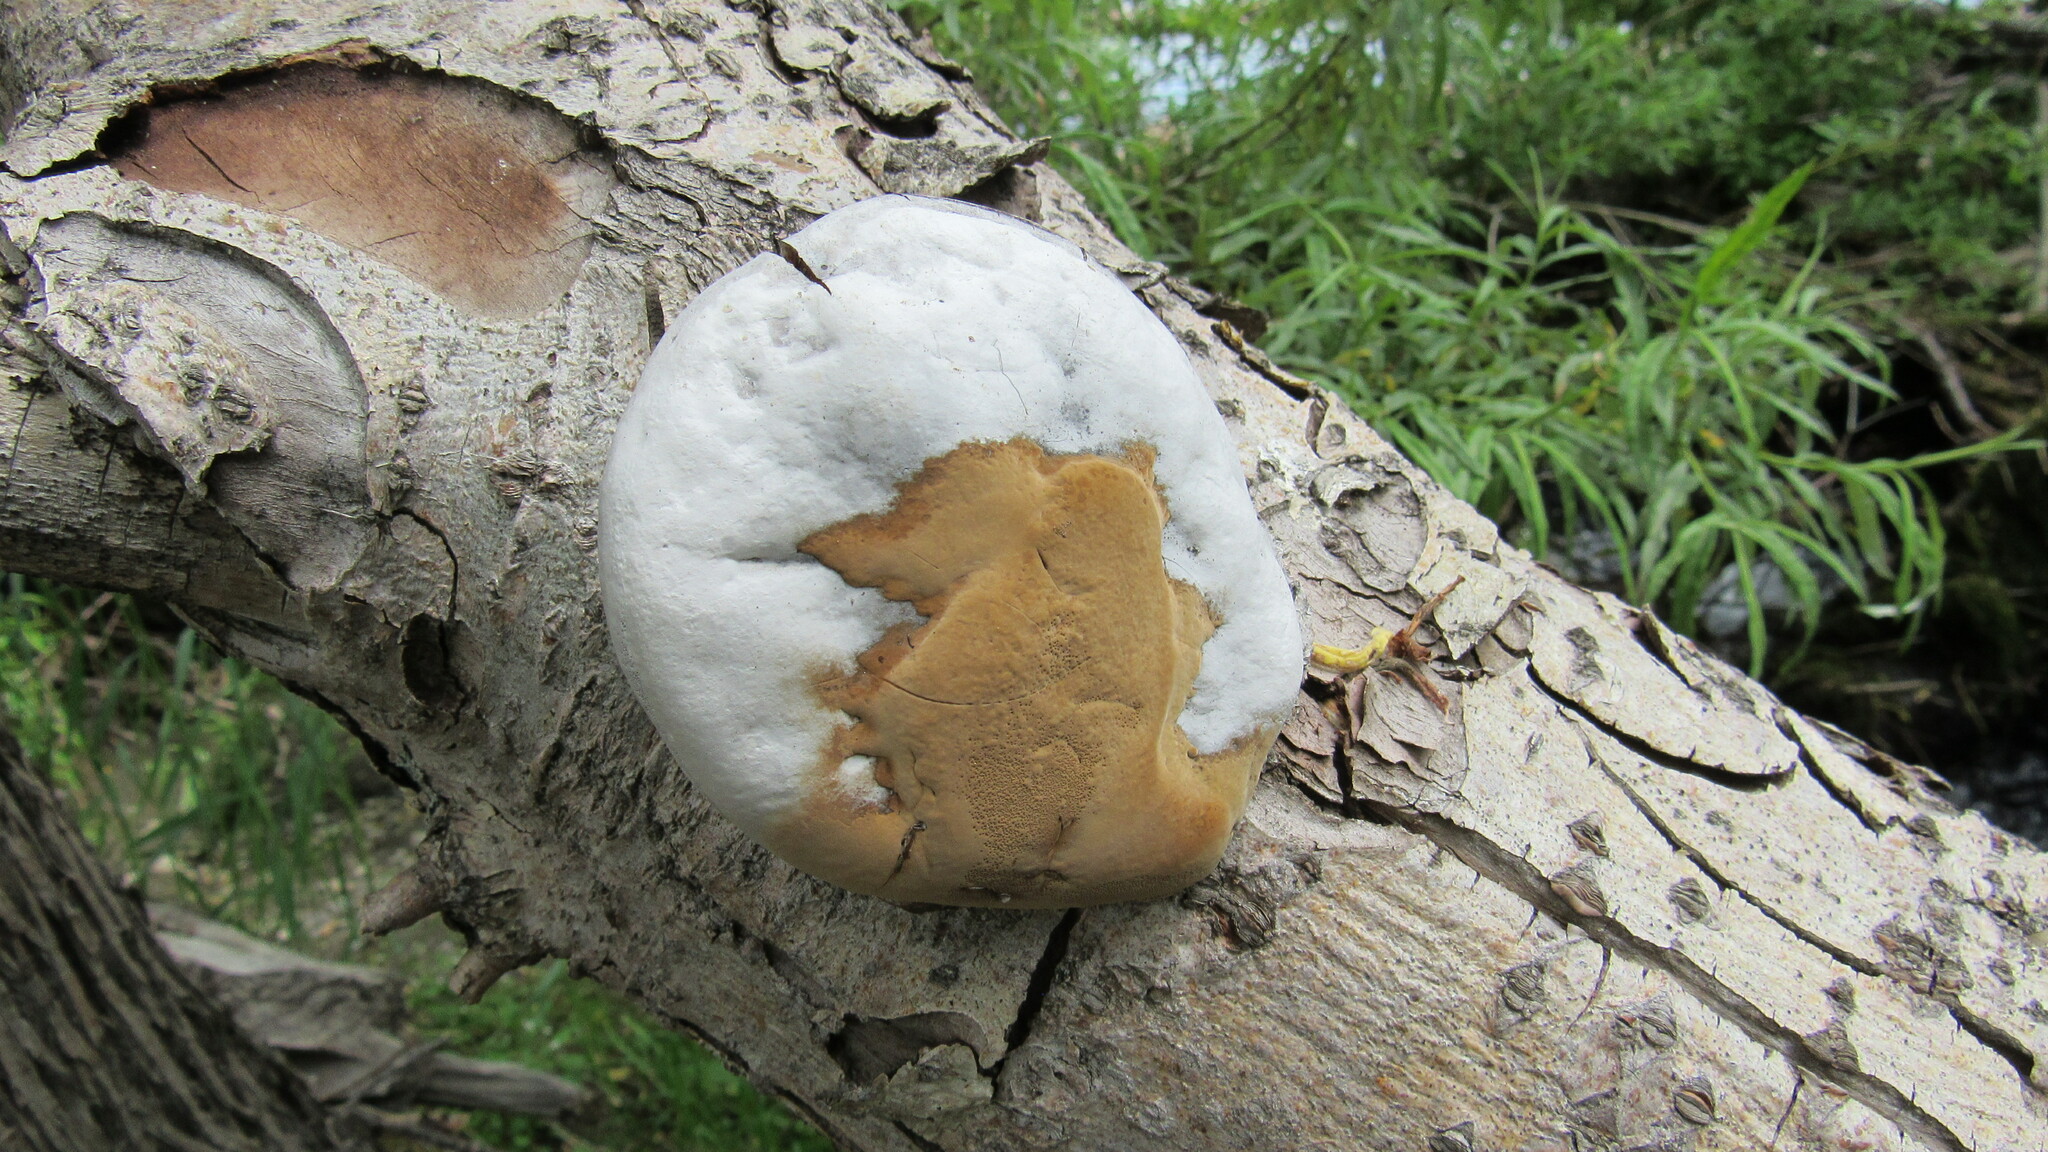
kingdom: Fungi
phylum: Basidiomycota
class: Agaricomycetes
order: Hymenochaetales
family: Hymenochaetaceae
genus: Phellinus
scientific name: Phellinus populicola
